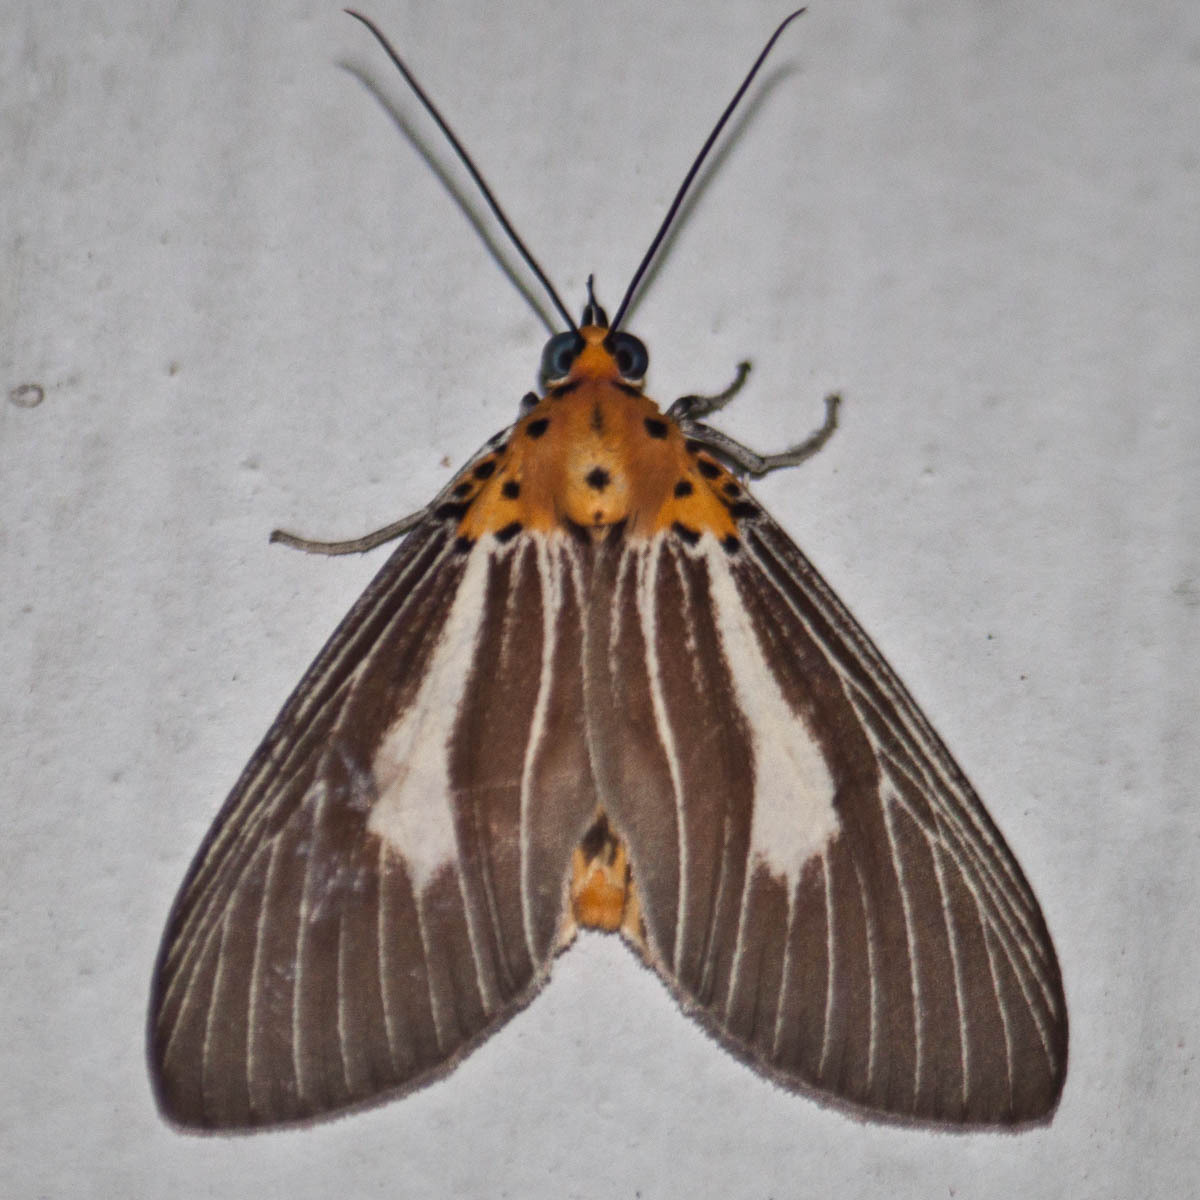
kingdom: Animalia
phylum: Arthropoda
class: Insecta
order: Lepidoptera
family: Erebidae
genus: Asota
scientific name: Asota subsimilis
